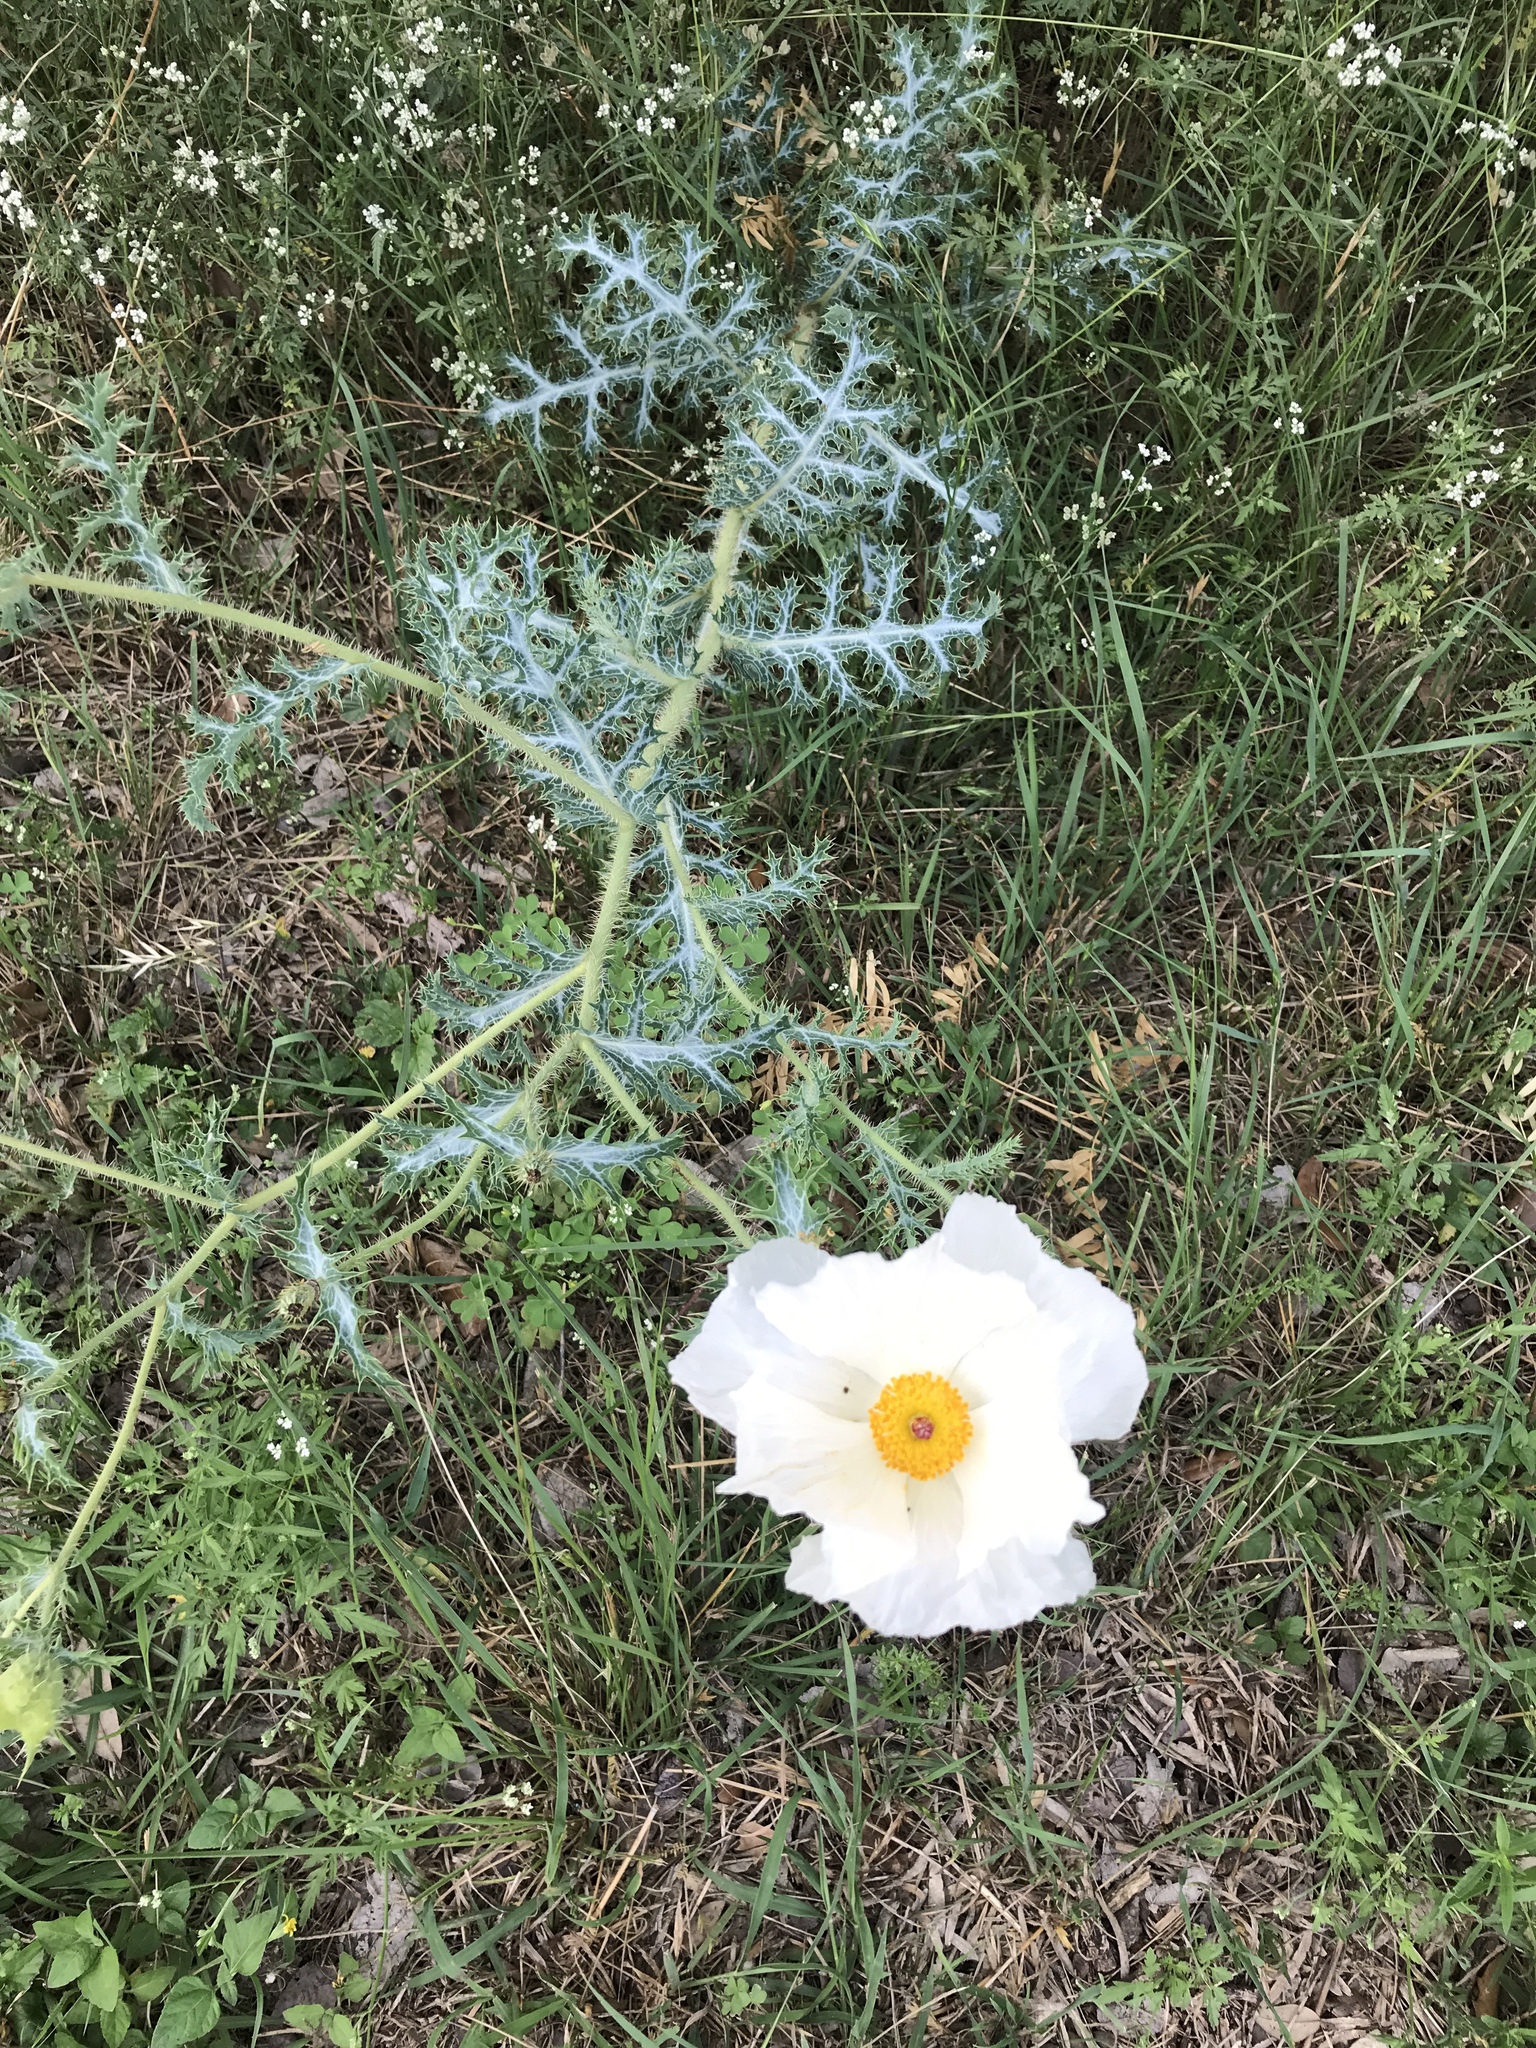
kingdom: Plantae
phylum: Tracheophyta
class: Magnoliopsida
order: Ranunculales
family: Papaveraceae
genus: Argemone
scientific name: Argemone albiflora
